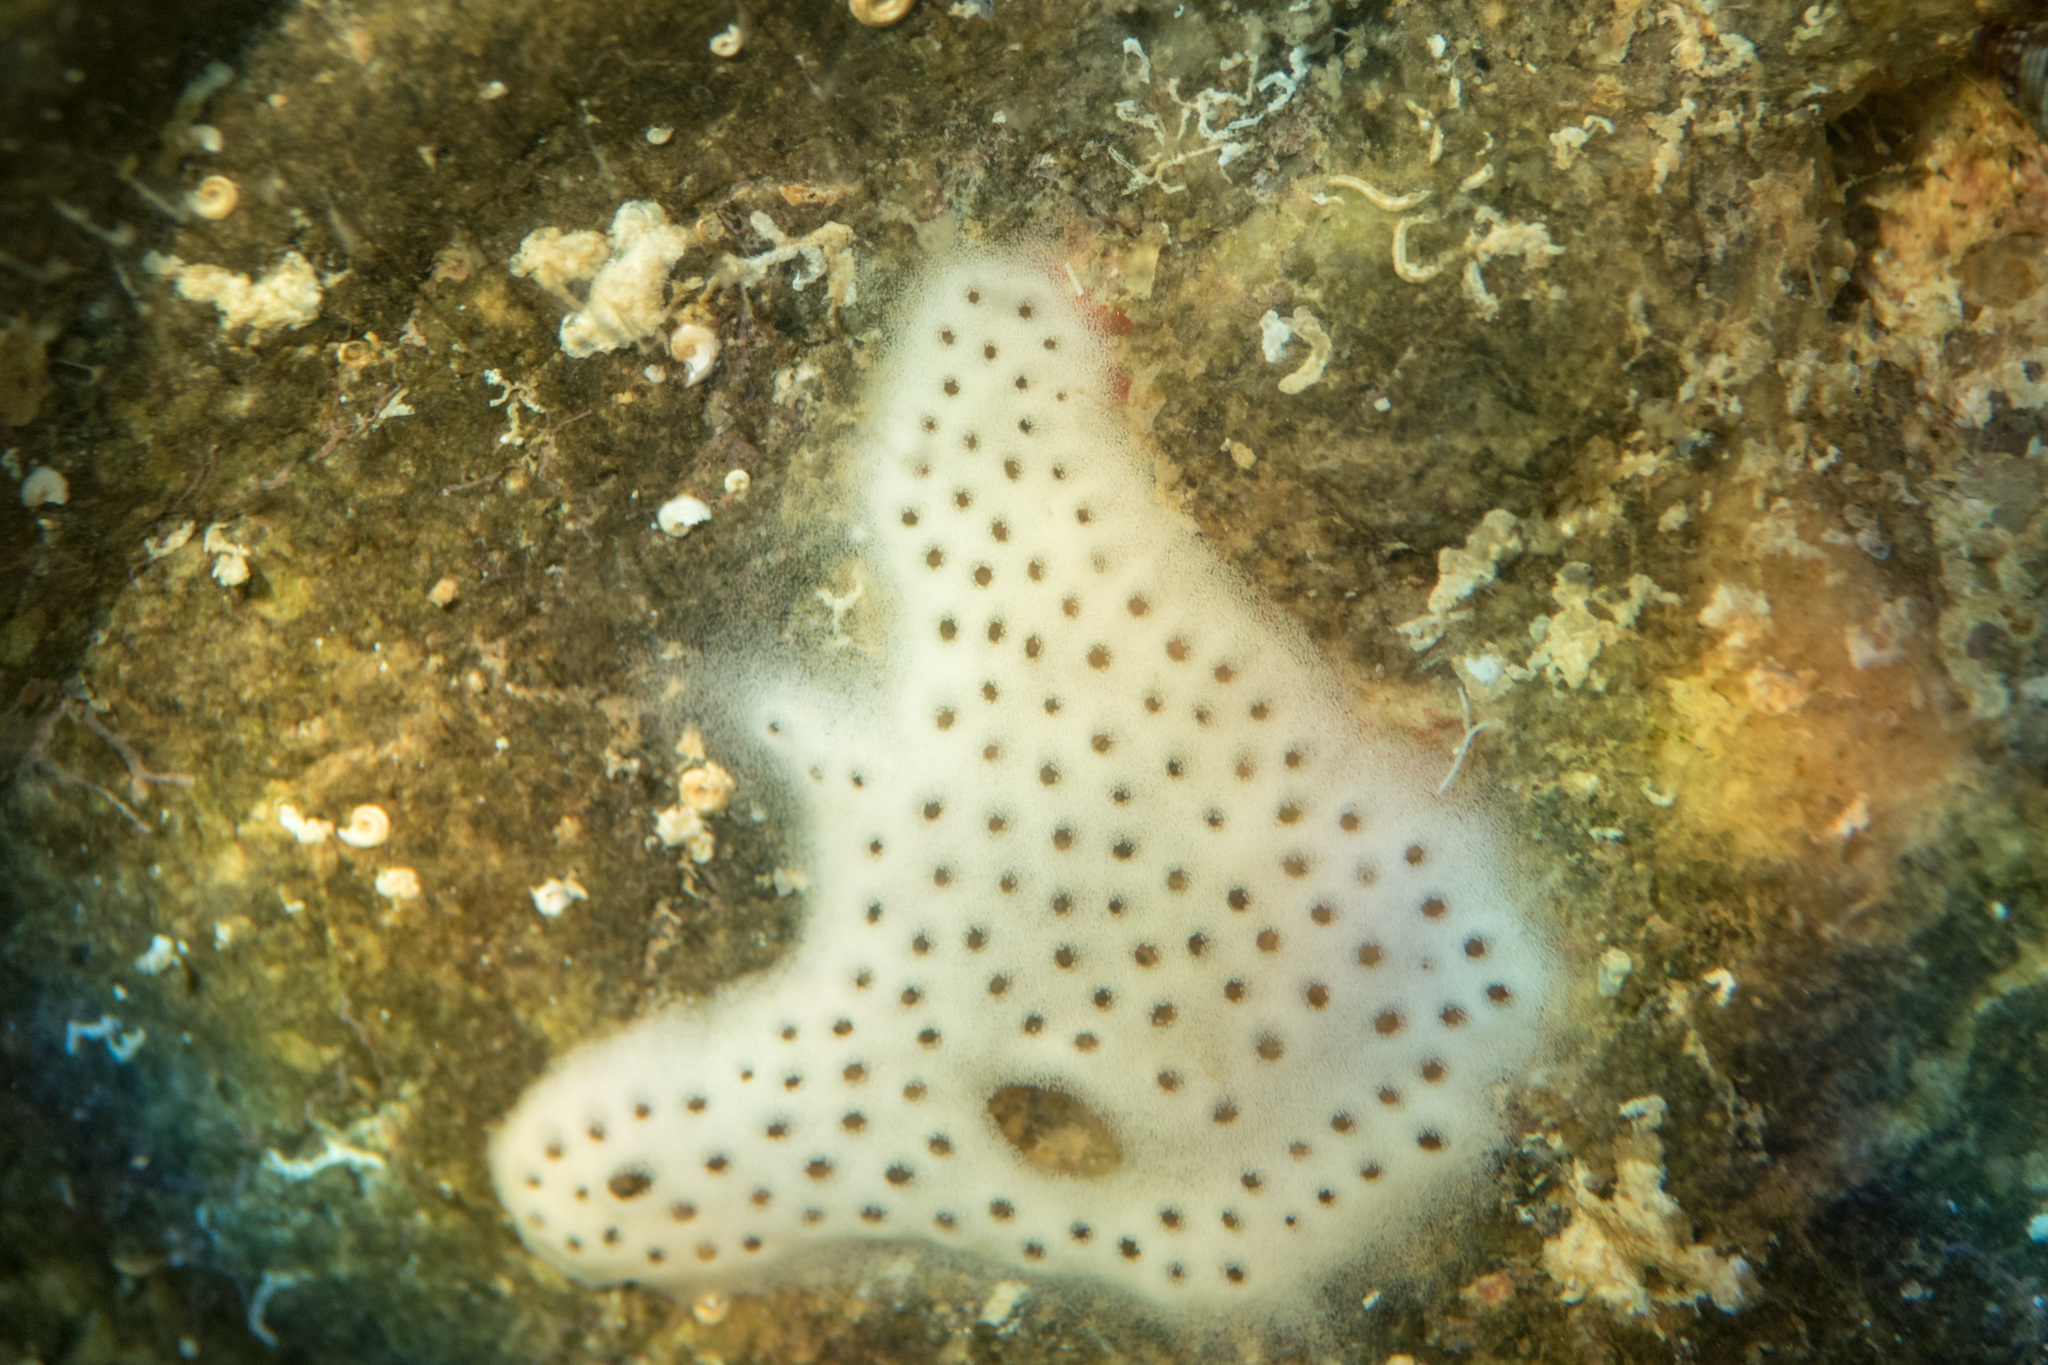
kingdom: Animalia
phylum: Chordata
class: Ascidiacea
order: Aplousobranchia
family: Didemnidae
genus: Lissoclinum
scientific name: Lissoclinum perforatum
